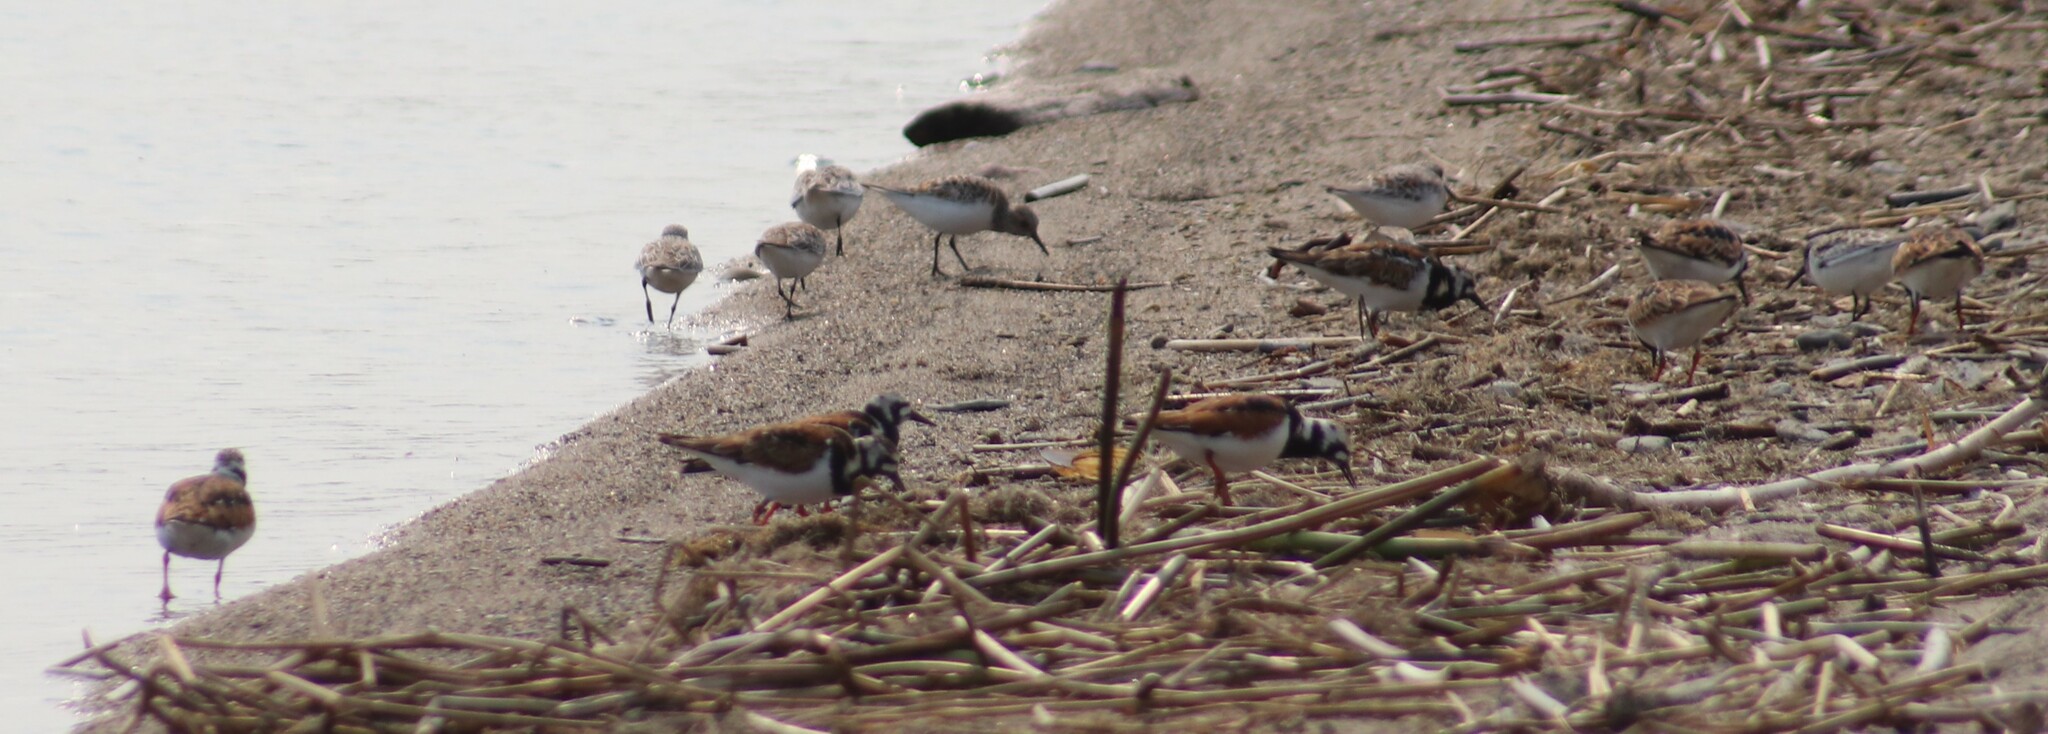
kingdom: Animalia
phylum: Chordata
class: Aves
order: Charadriiformes
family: Scolopacidae
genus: Arenaria
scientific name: Arenaria interpres
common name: Ruddy turnstone
